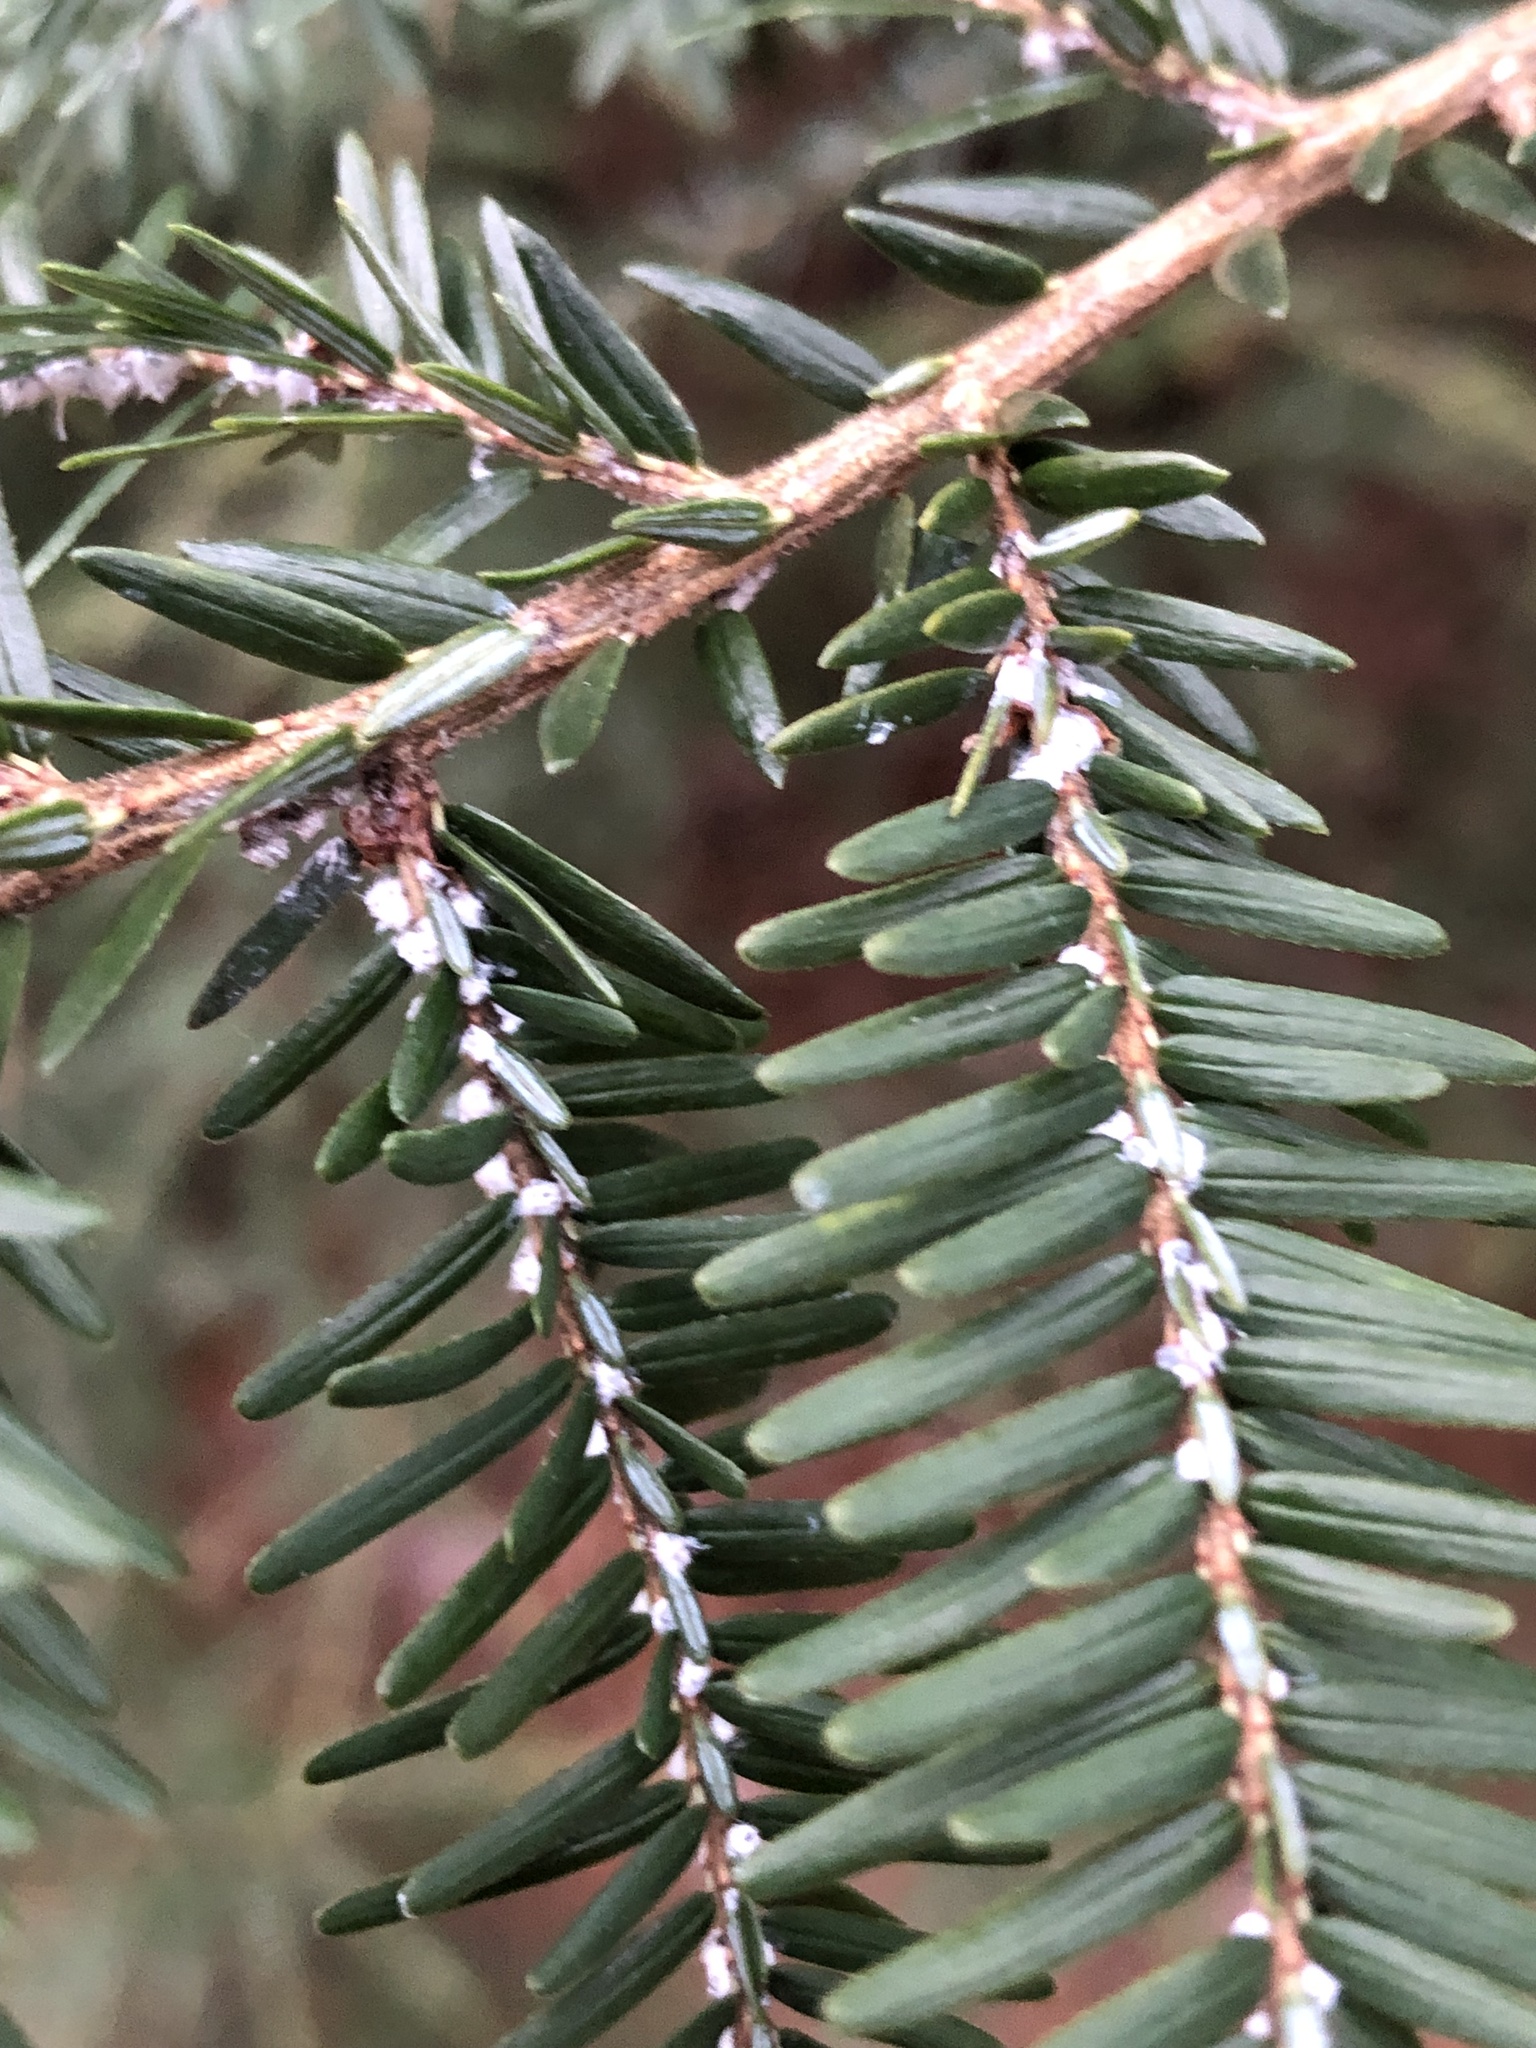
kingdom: Animalia
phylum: Arthropoda
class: Insecta
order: Hemiptera
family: Adelgidae
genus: Adelges
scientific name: Adelges tsugae
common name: Hemlock woolly adelgid
